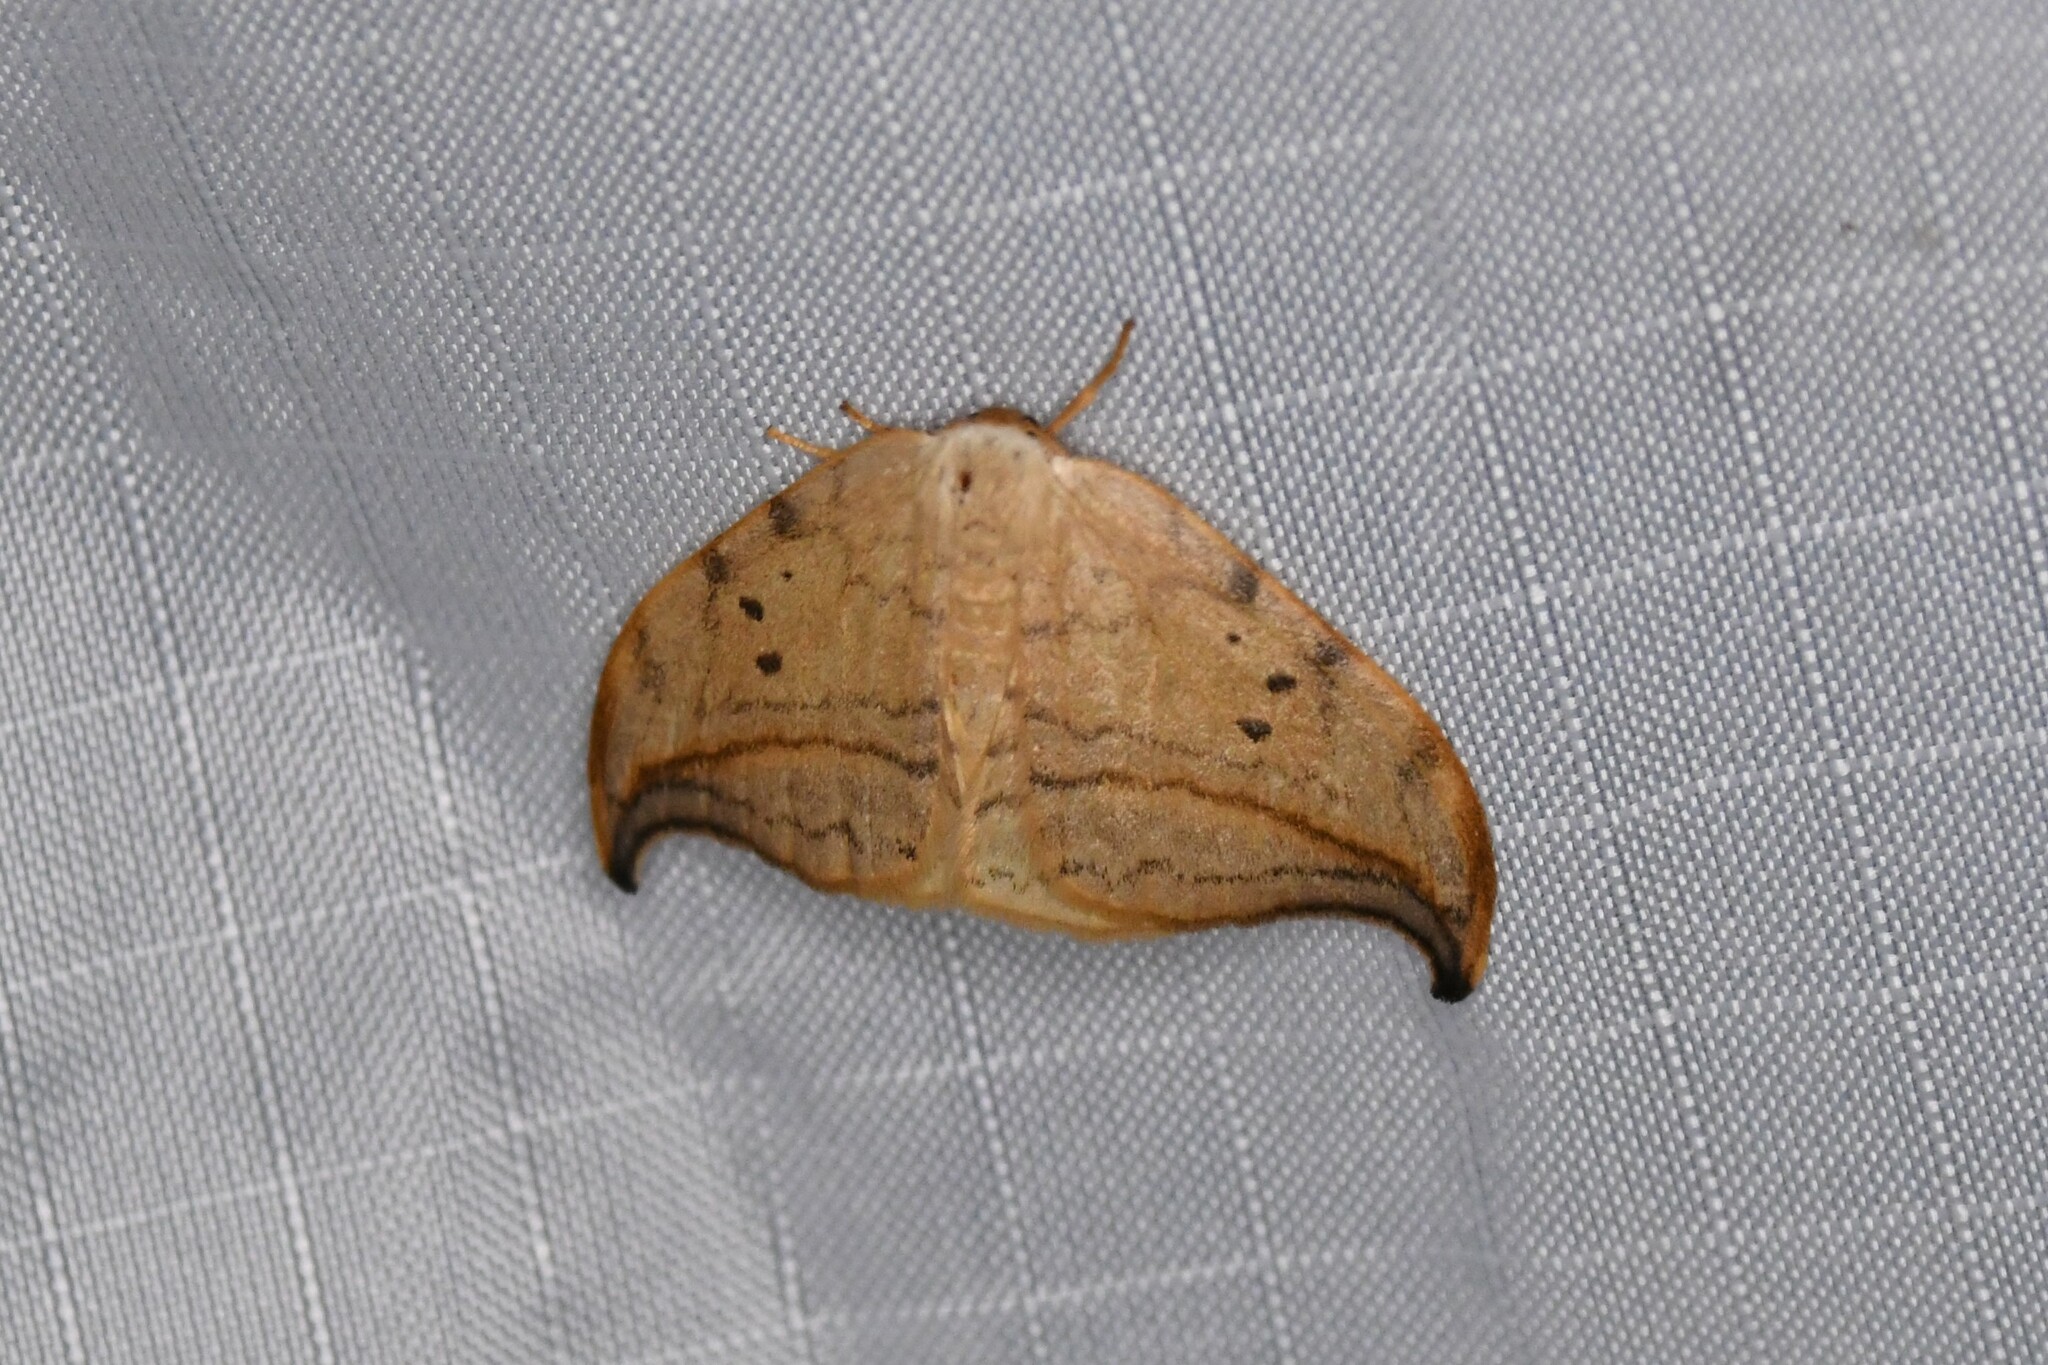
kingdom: Animalia
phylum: Arthropoda
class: Insecta
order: Lepidoptera
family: Drepanidae
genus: Drepana
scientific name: Drepana arcuata
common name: Arched hooktip moth
